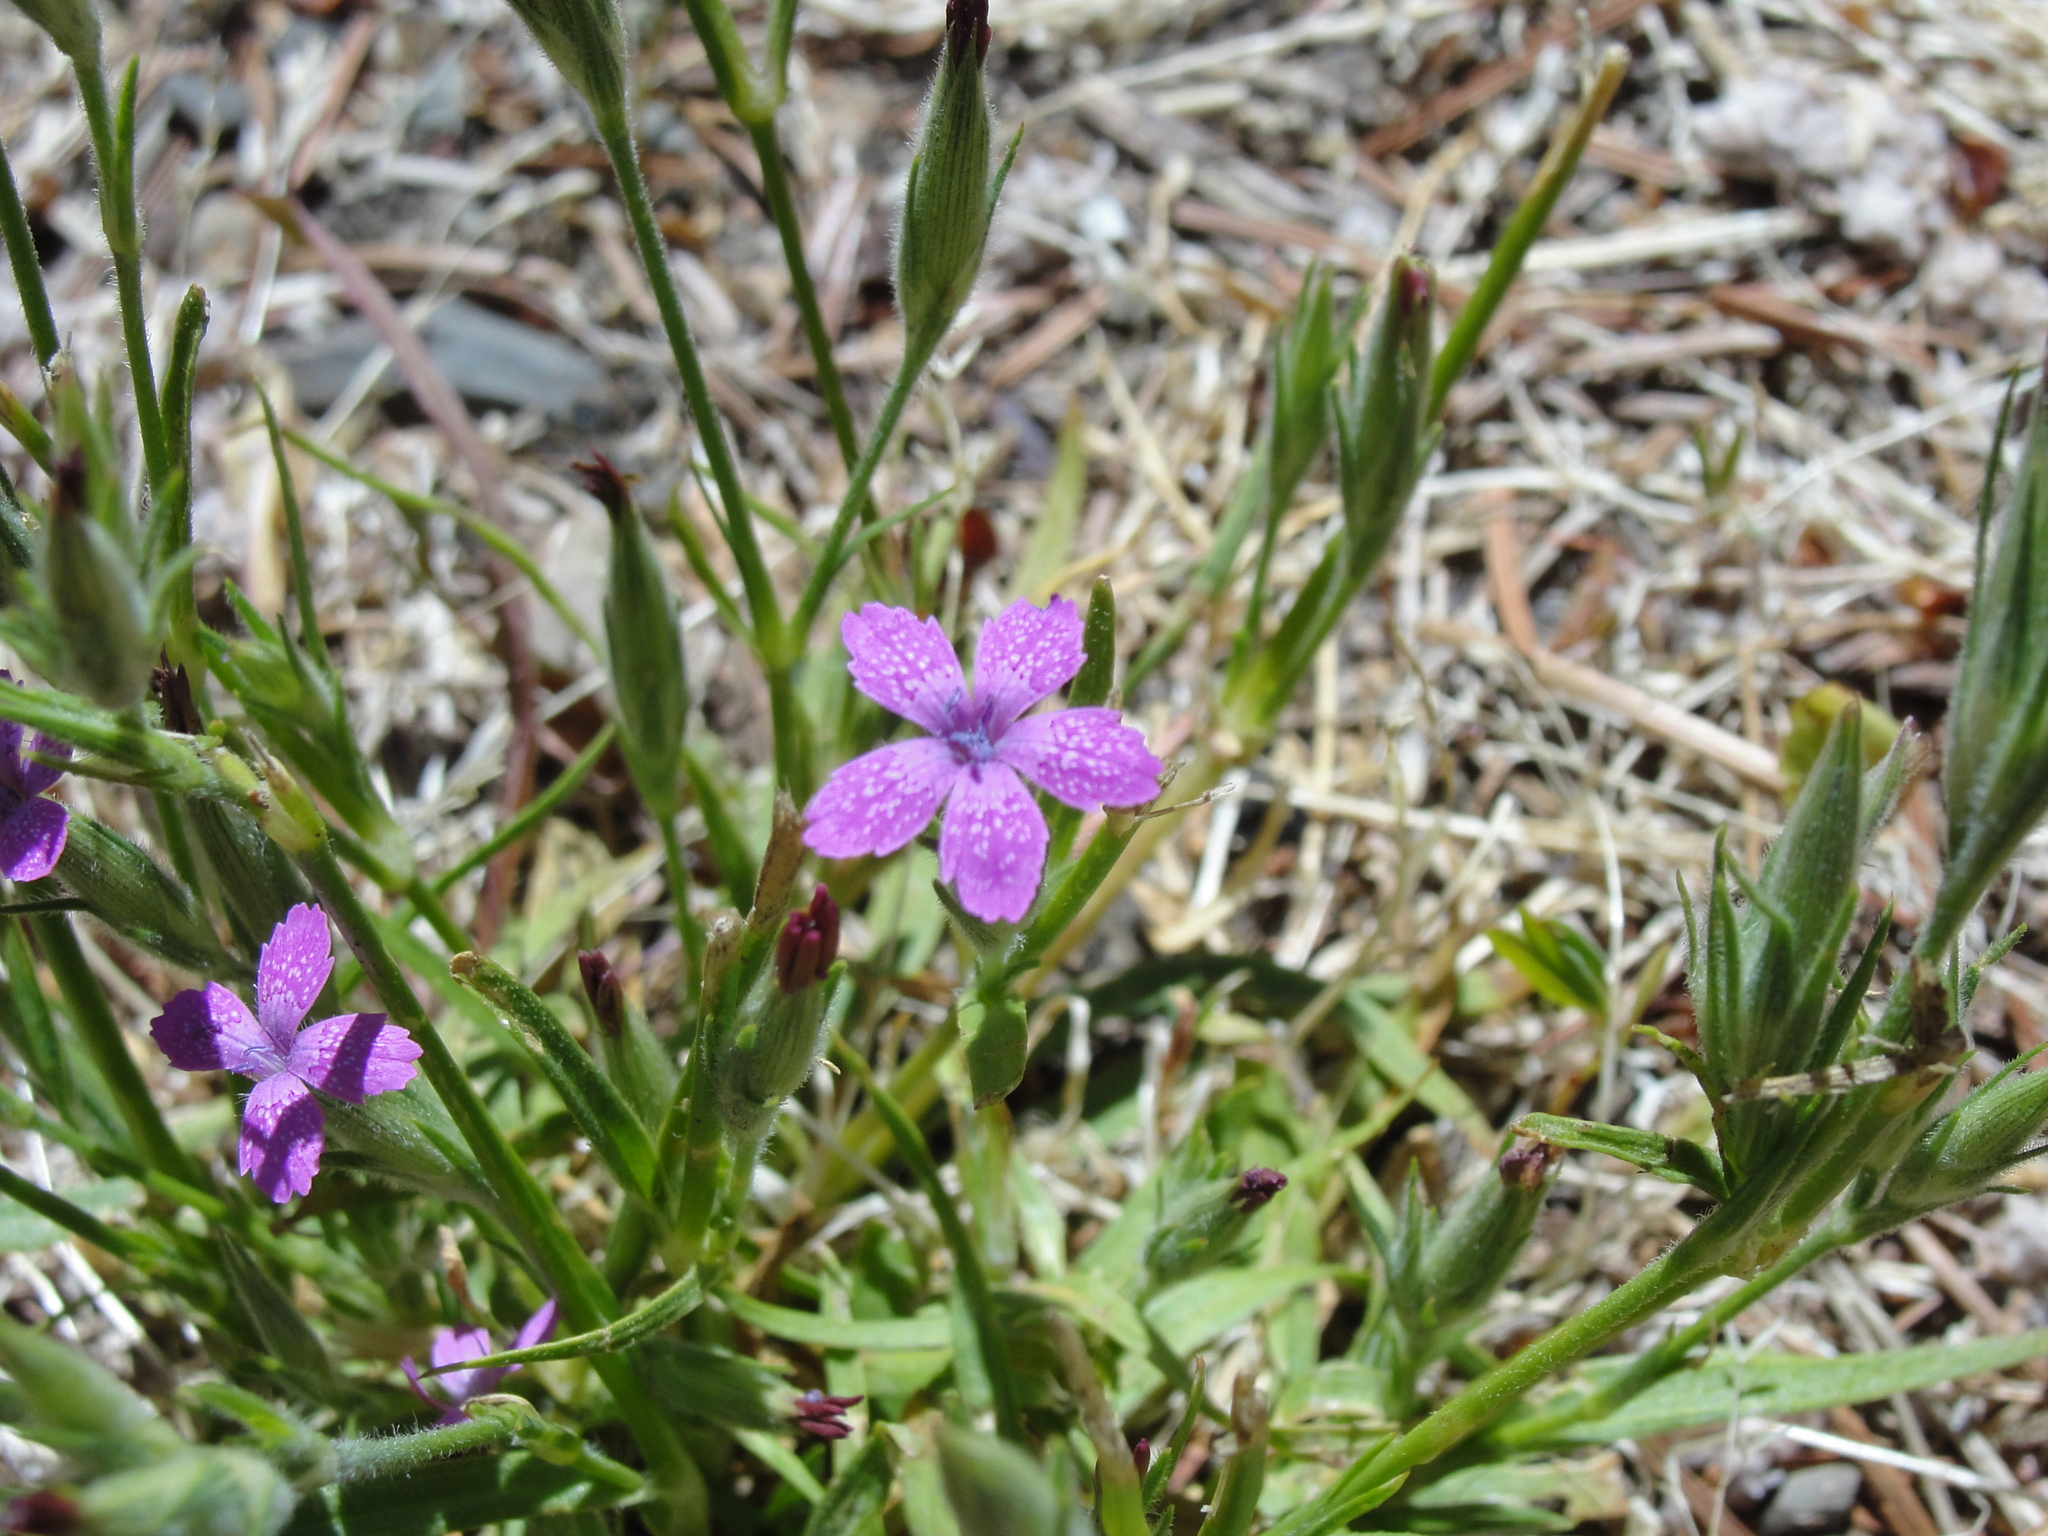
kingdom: Plantae
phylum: Tracheophyta
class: Magnoliopsida
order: Caryophyllales
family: Caryophyllaceae
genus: Dianthus
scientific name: Dianthus armeria
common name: Deptford pink
